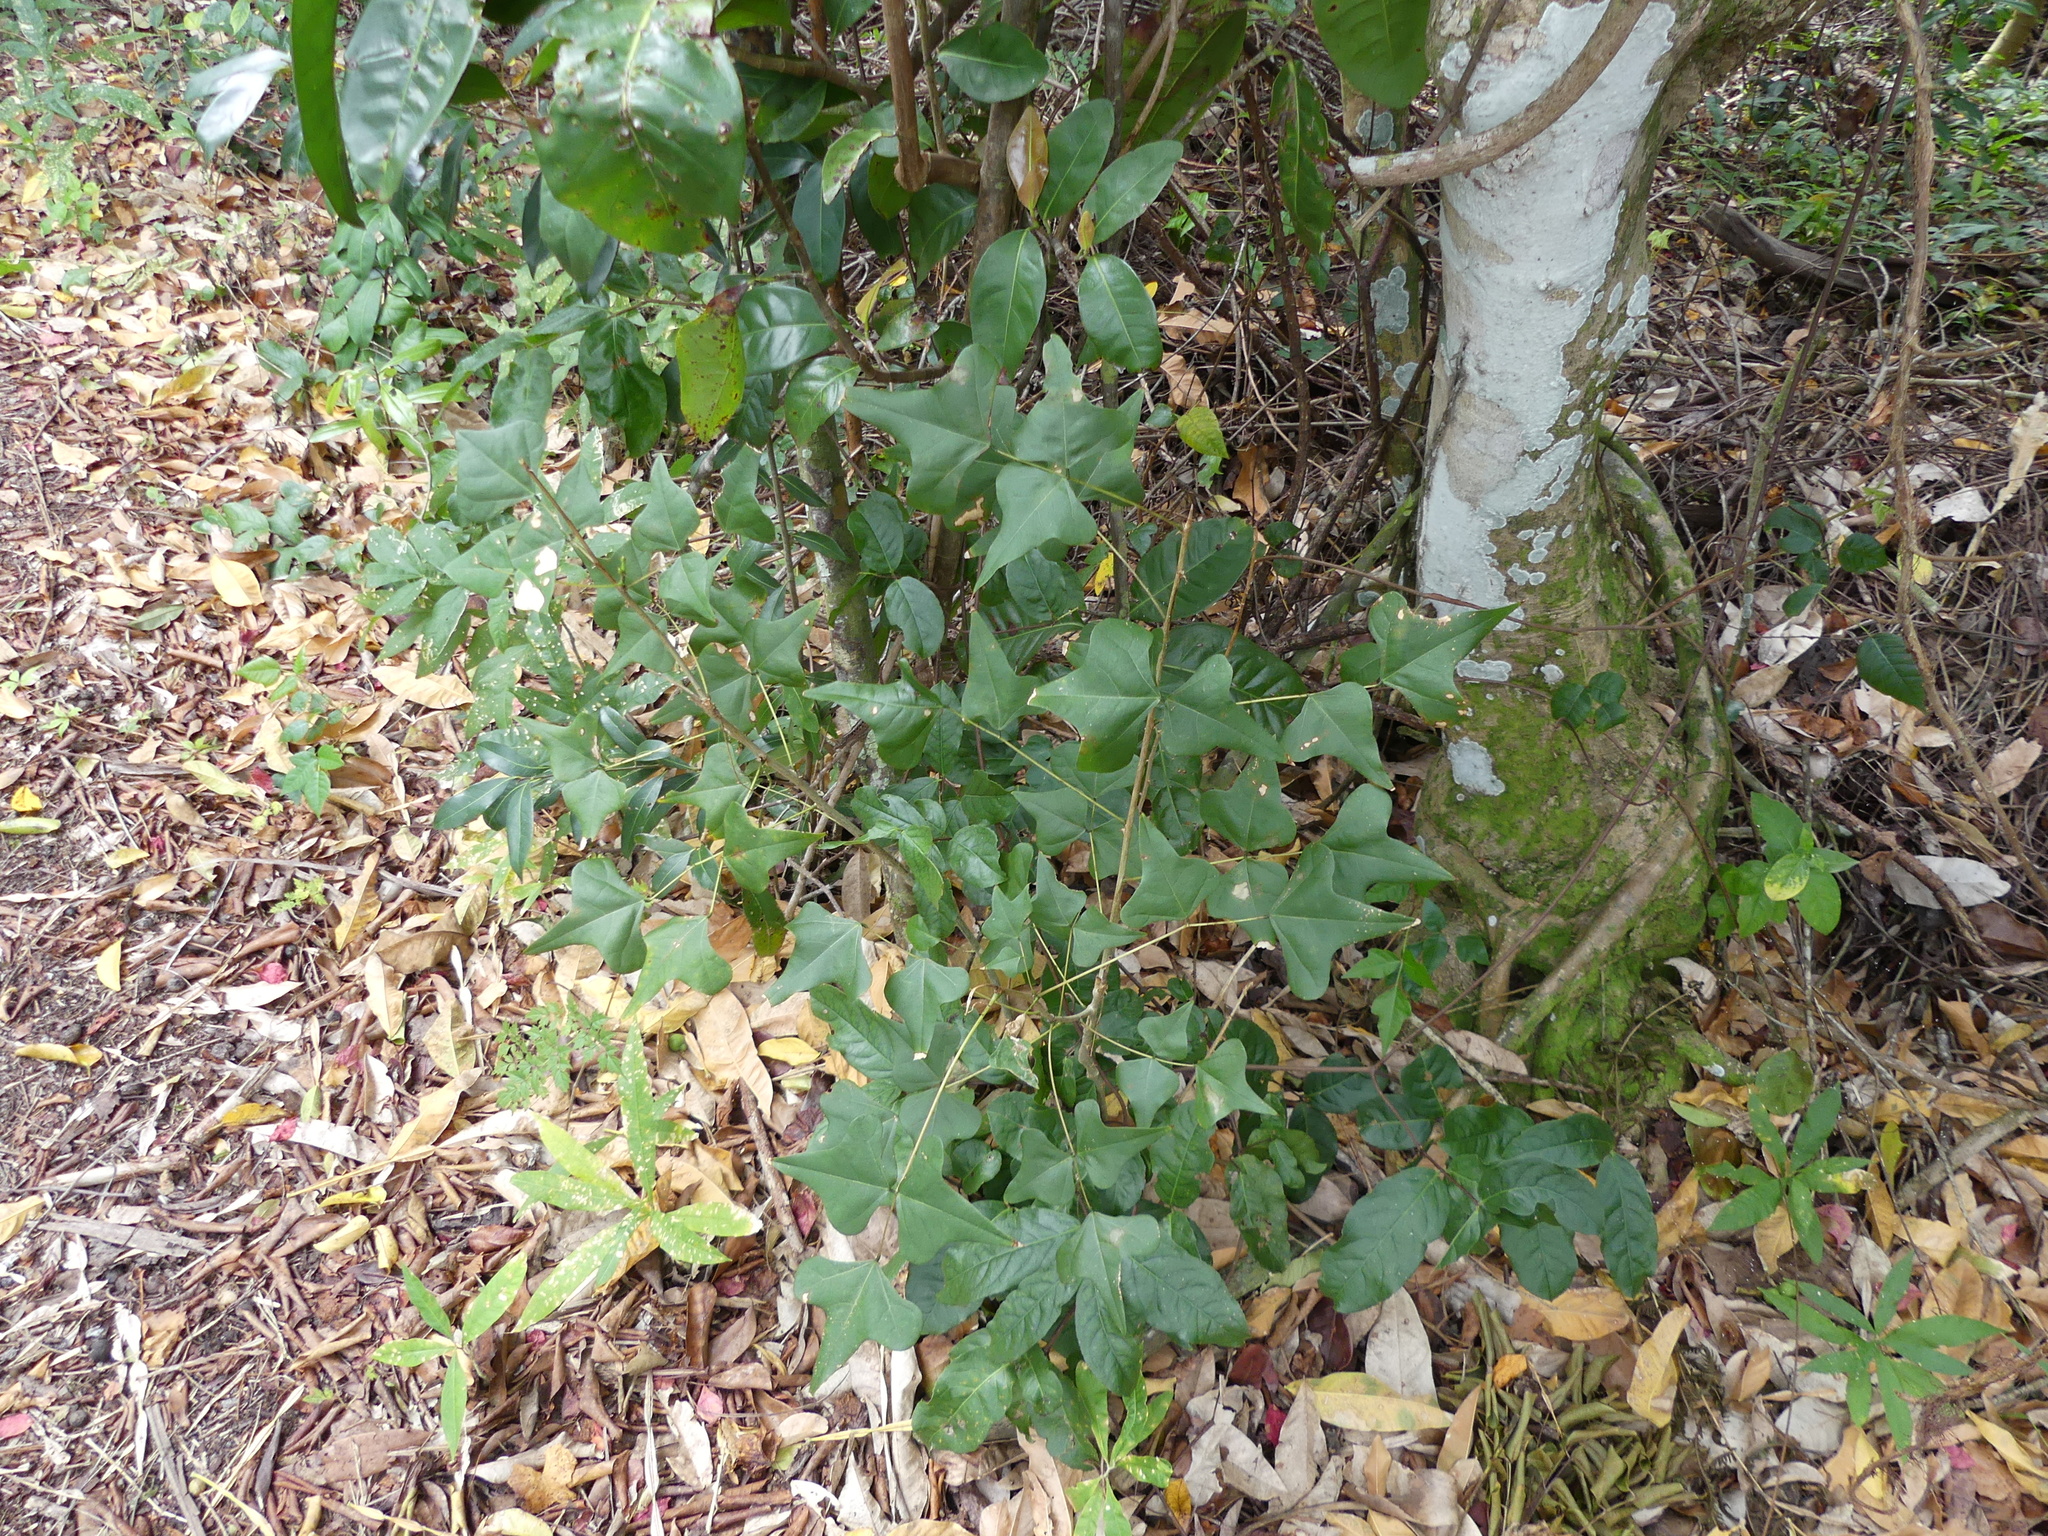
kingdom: Plantae
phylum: Tracheophyta
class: Magnoliopsida
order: Fabales
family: Fabaceae
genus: Erythrina
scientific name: Erythrina herbacea
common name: Coral-bean
